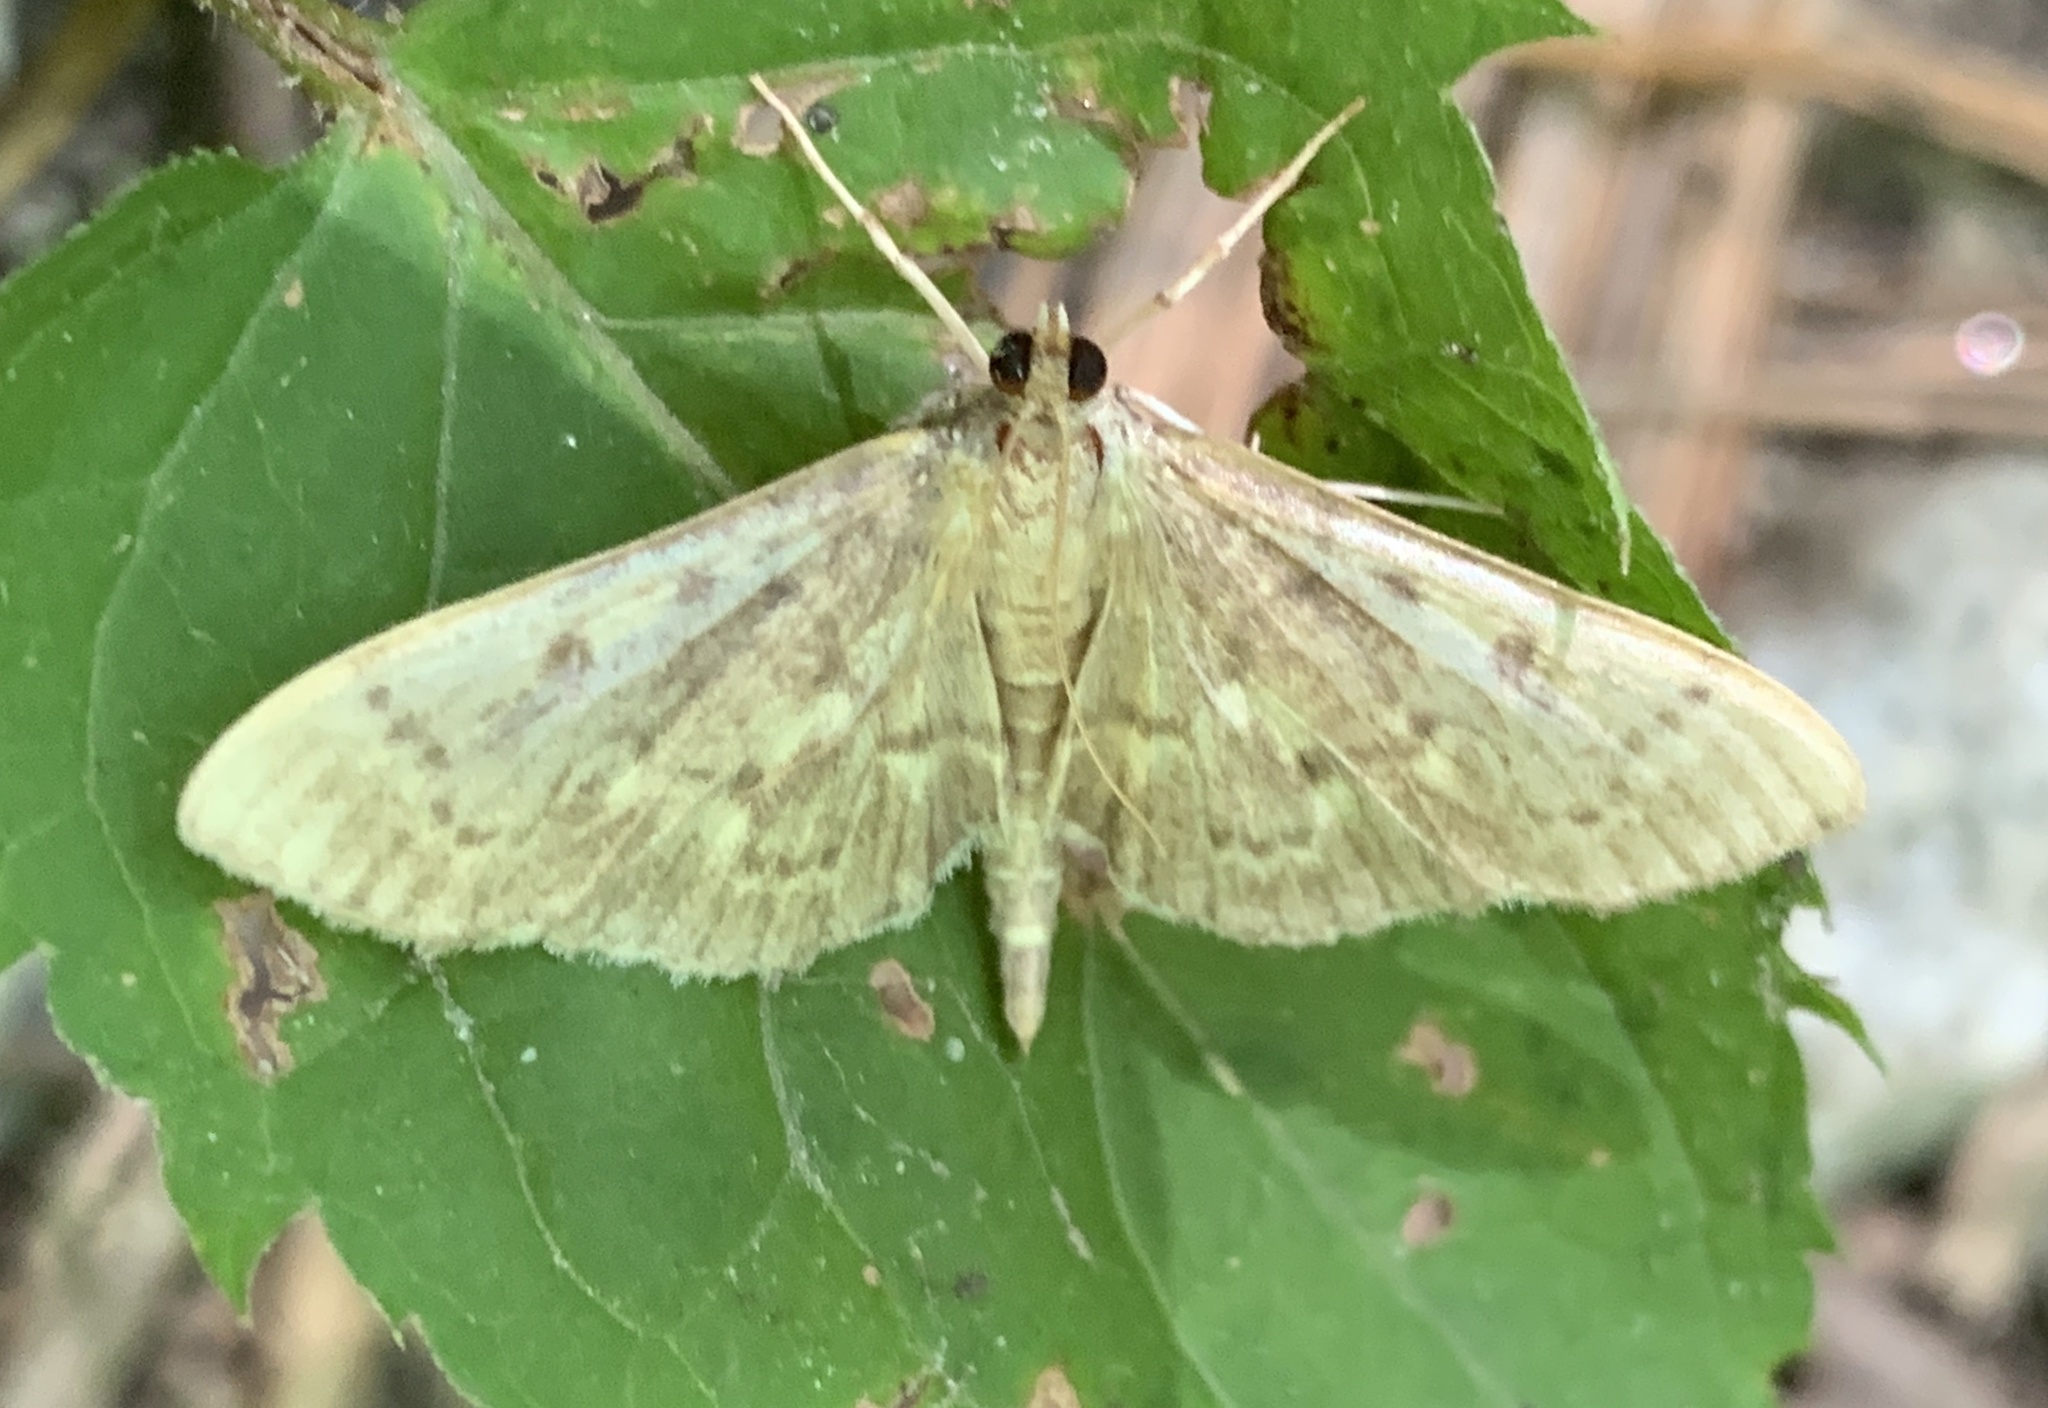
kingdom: Animalia
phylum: Arthropoda
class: Insecta
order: Lepidoptera
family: Crambidae
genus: Herpetogramma
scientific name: Herpetogramma aeglealis
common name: Serpentine webworm moth
